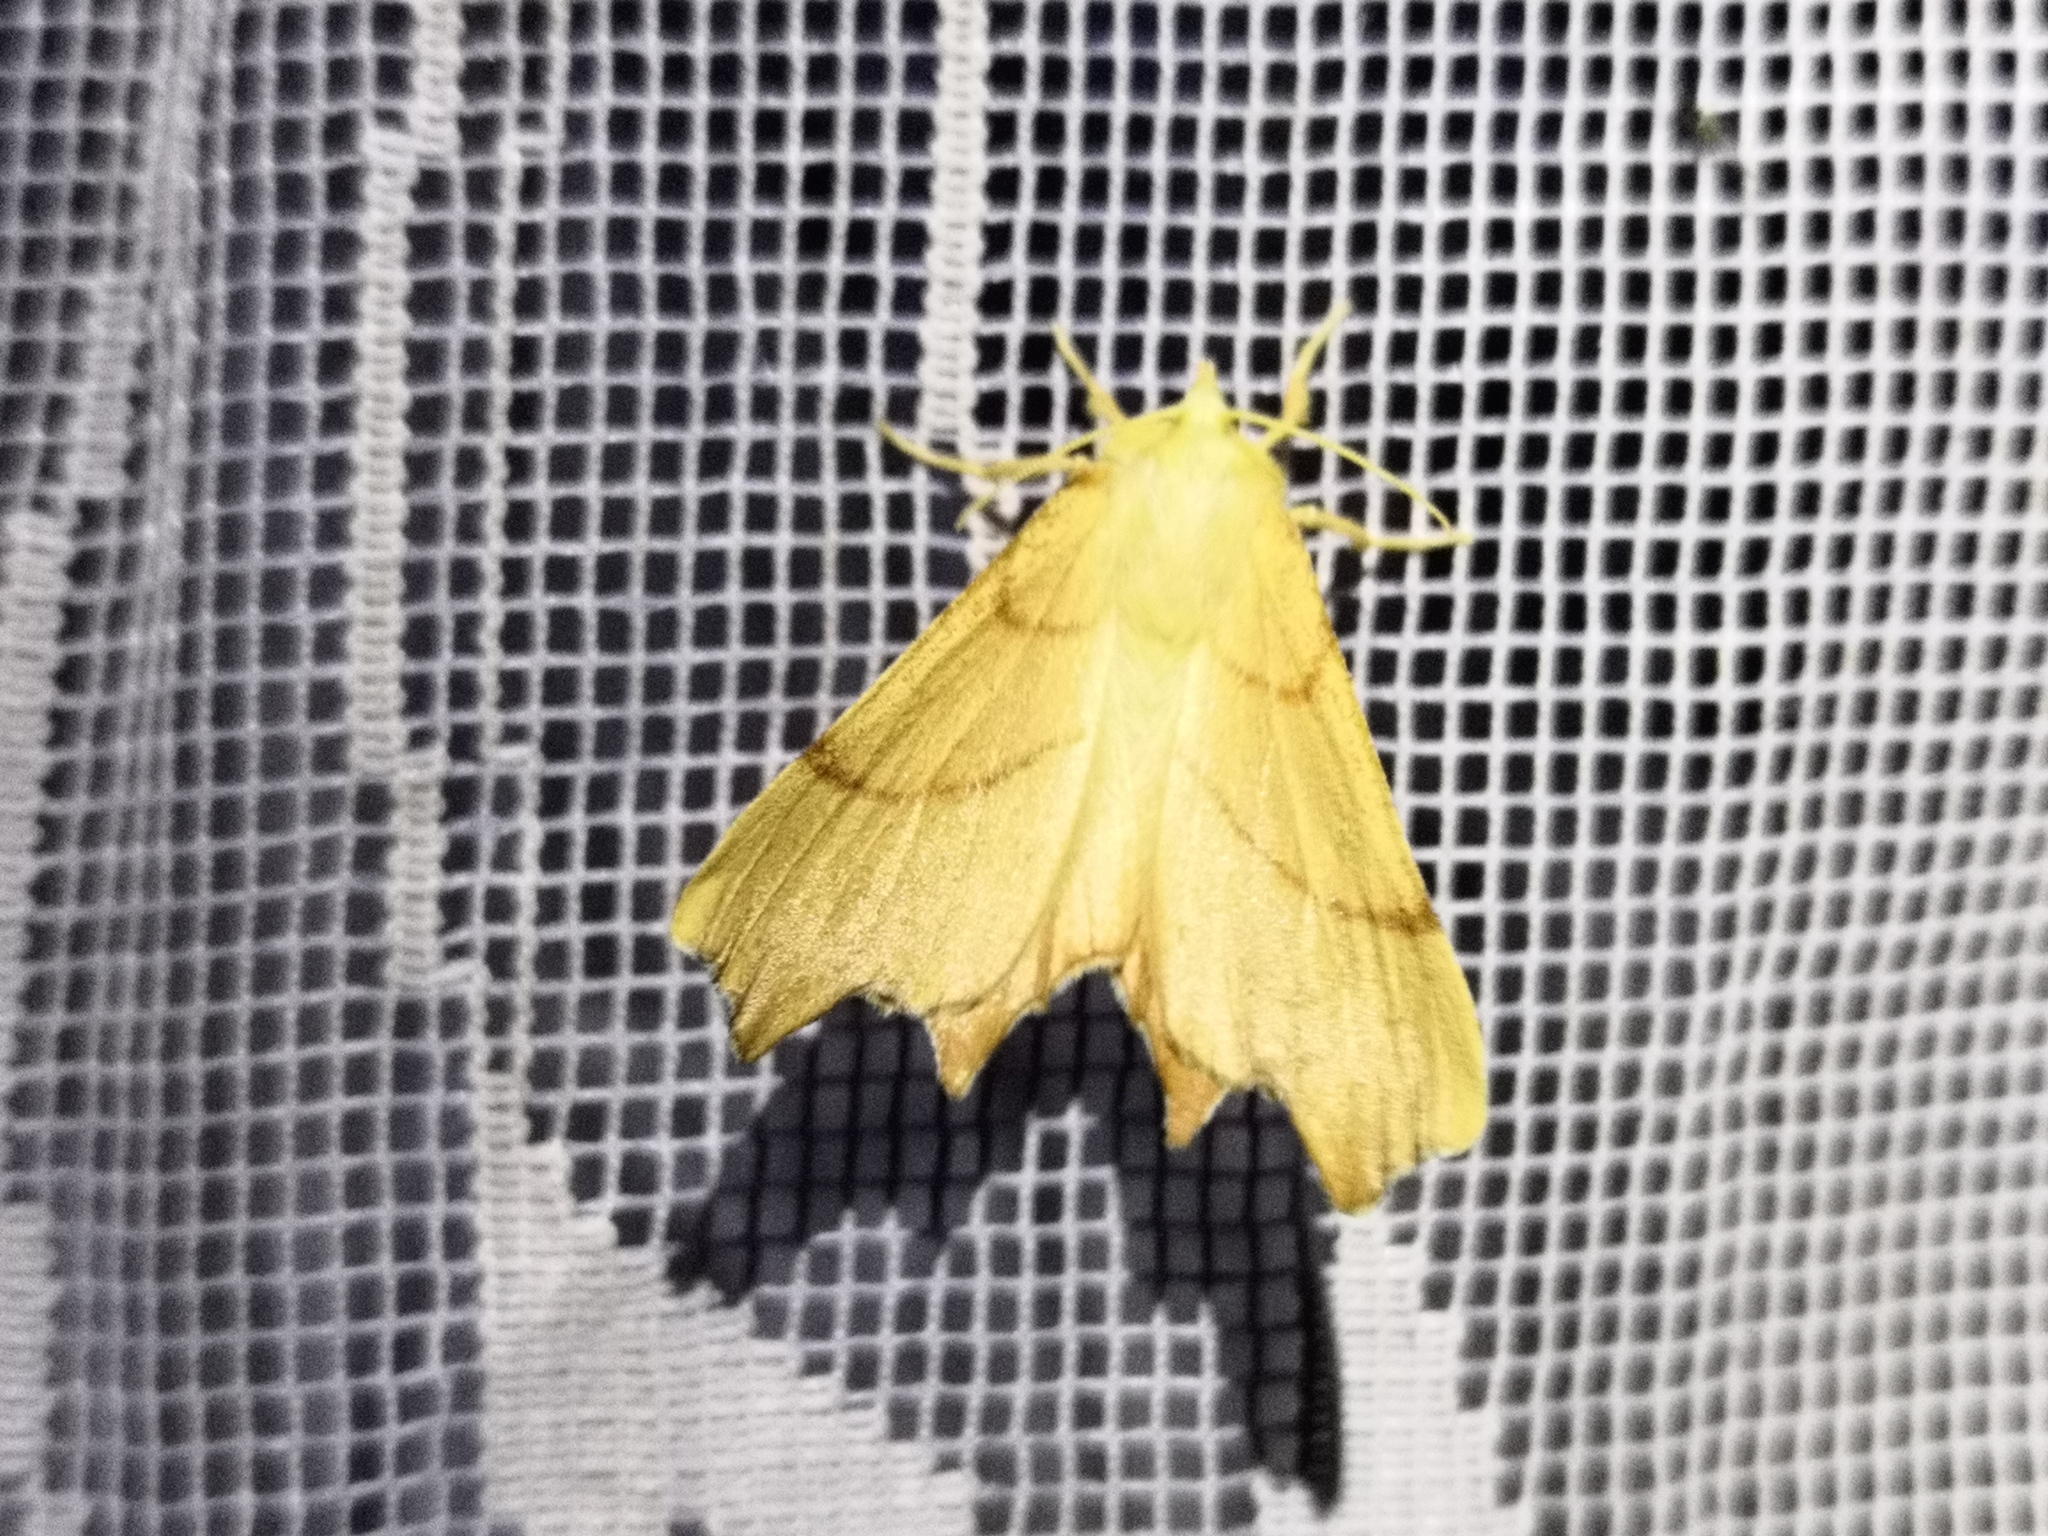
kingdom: Animalia
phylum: Arthropoda
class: Insecta
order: Lepidoptera
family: Geometridae
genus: Ennomos
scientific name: Ennomos erosaria
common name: September thorn
